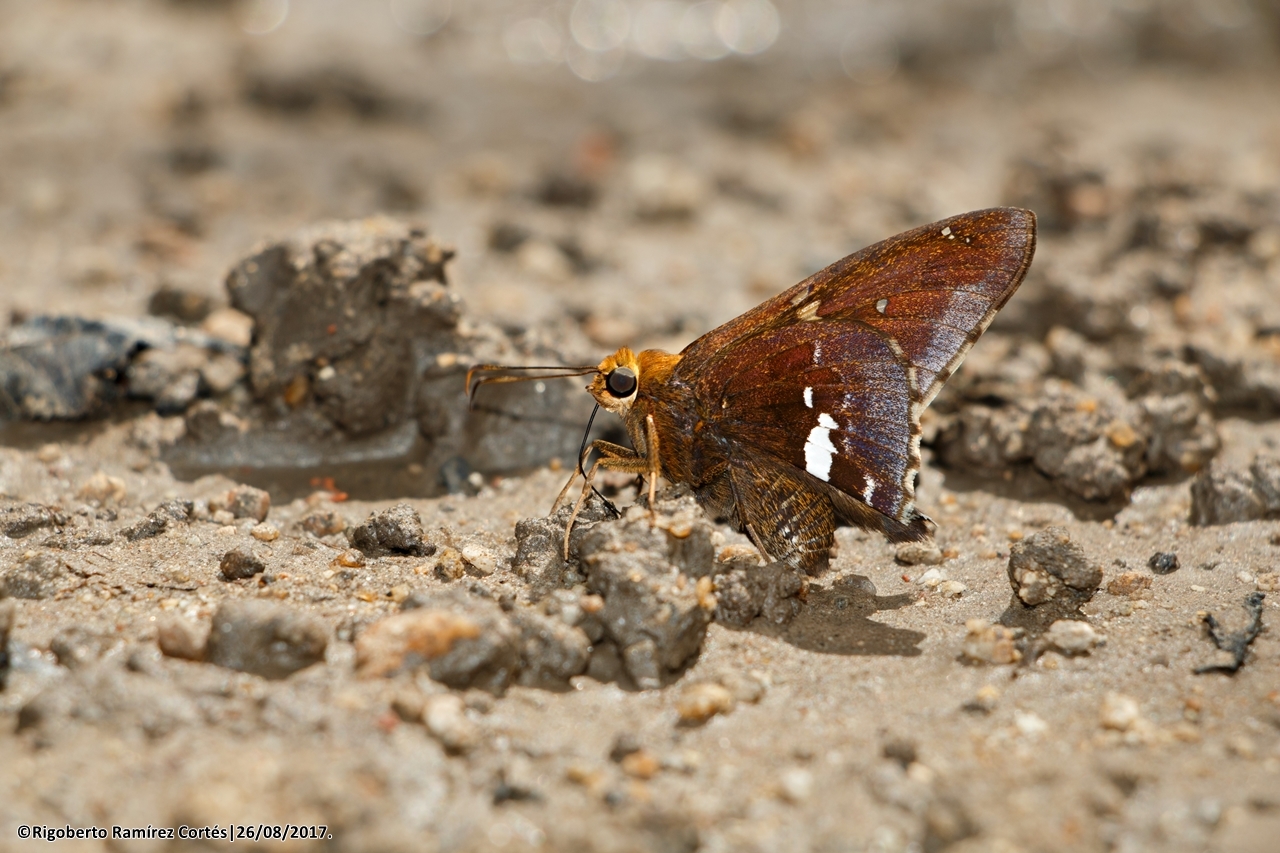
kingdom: Animalia
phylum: Arthropoda
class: Insecta
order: Lepidoptera
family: Hesperiidae
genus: Epargyreus
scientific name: Epargyreus exadeus
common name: Broken silverdrop
